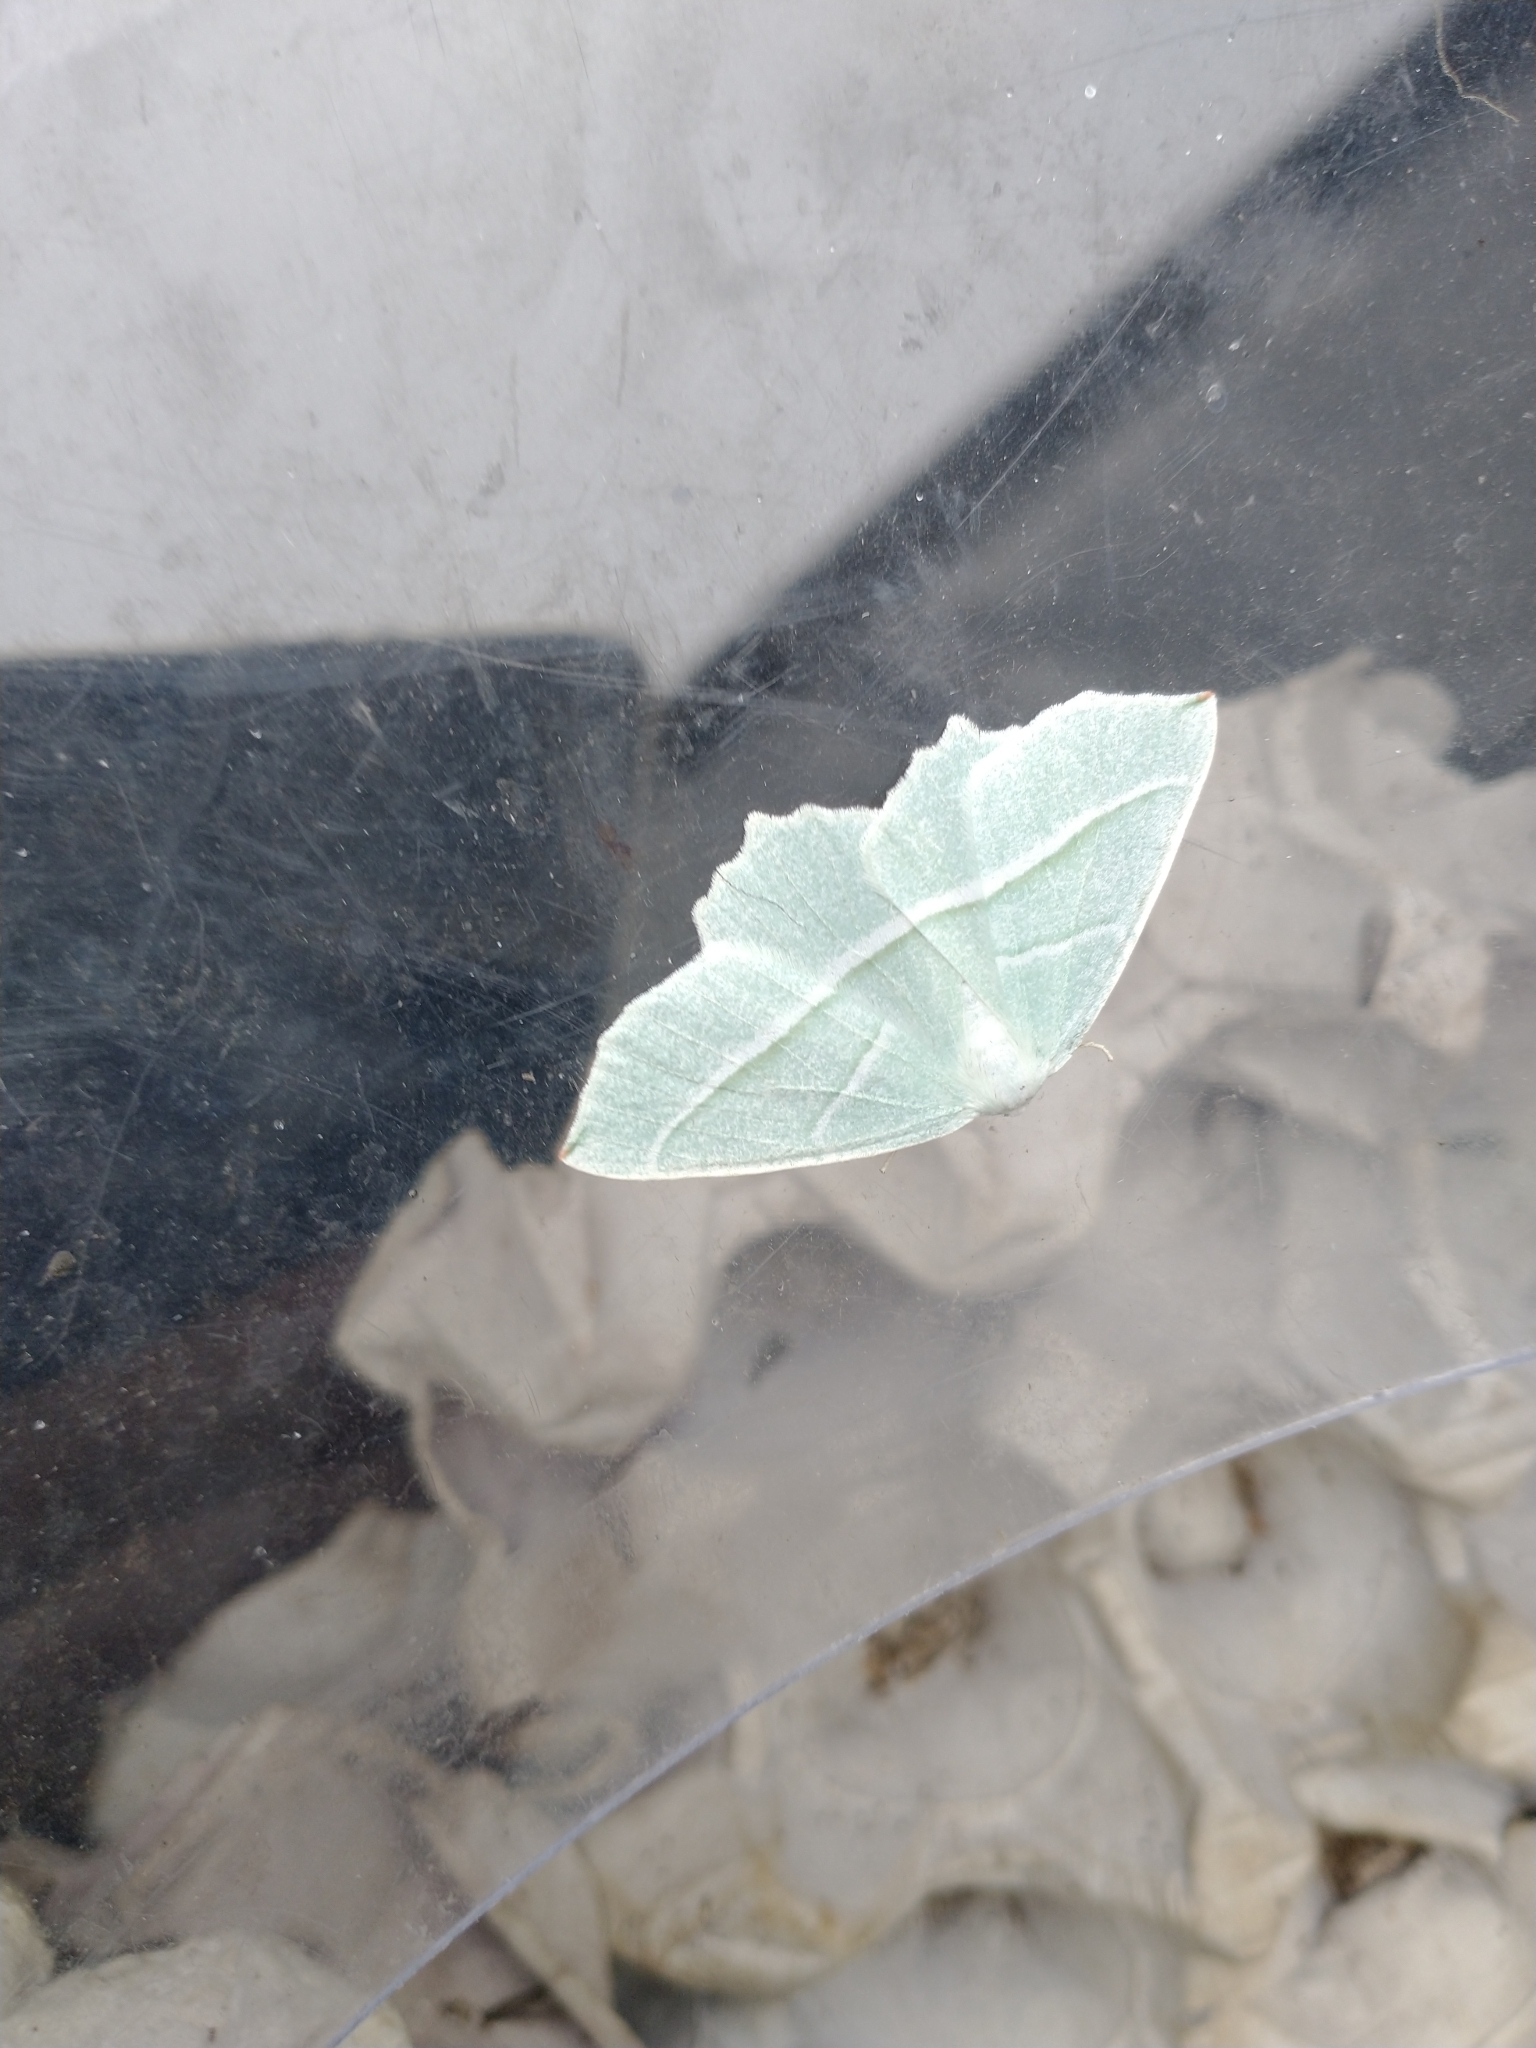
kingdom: Animalia
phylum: Arthropoda
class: Insecta
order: Lepidoptera
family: Geometridae
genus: Campaea
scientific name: Campaea margaritaria
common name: Light emerald
